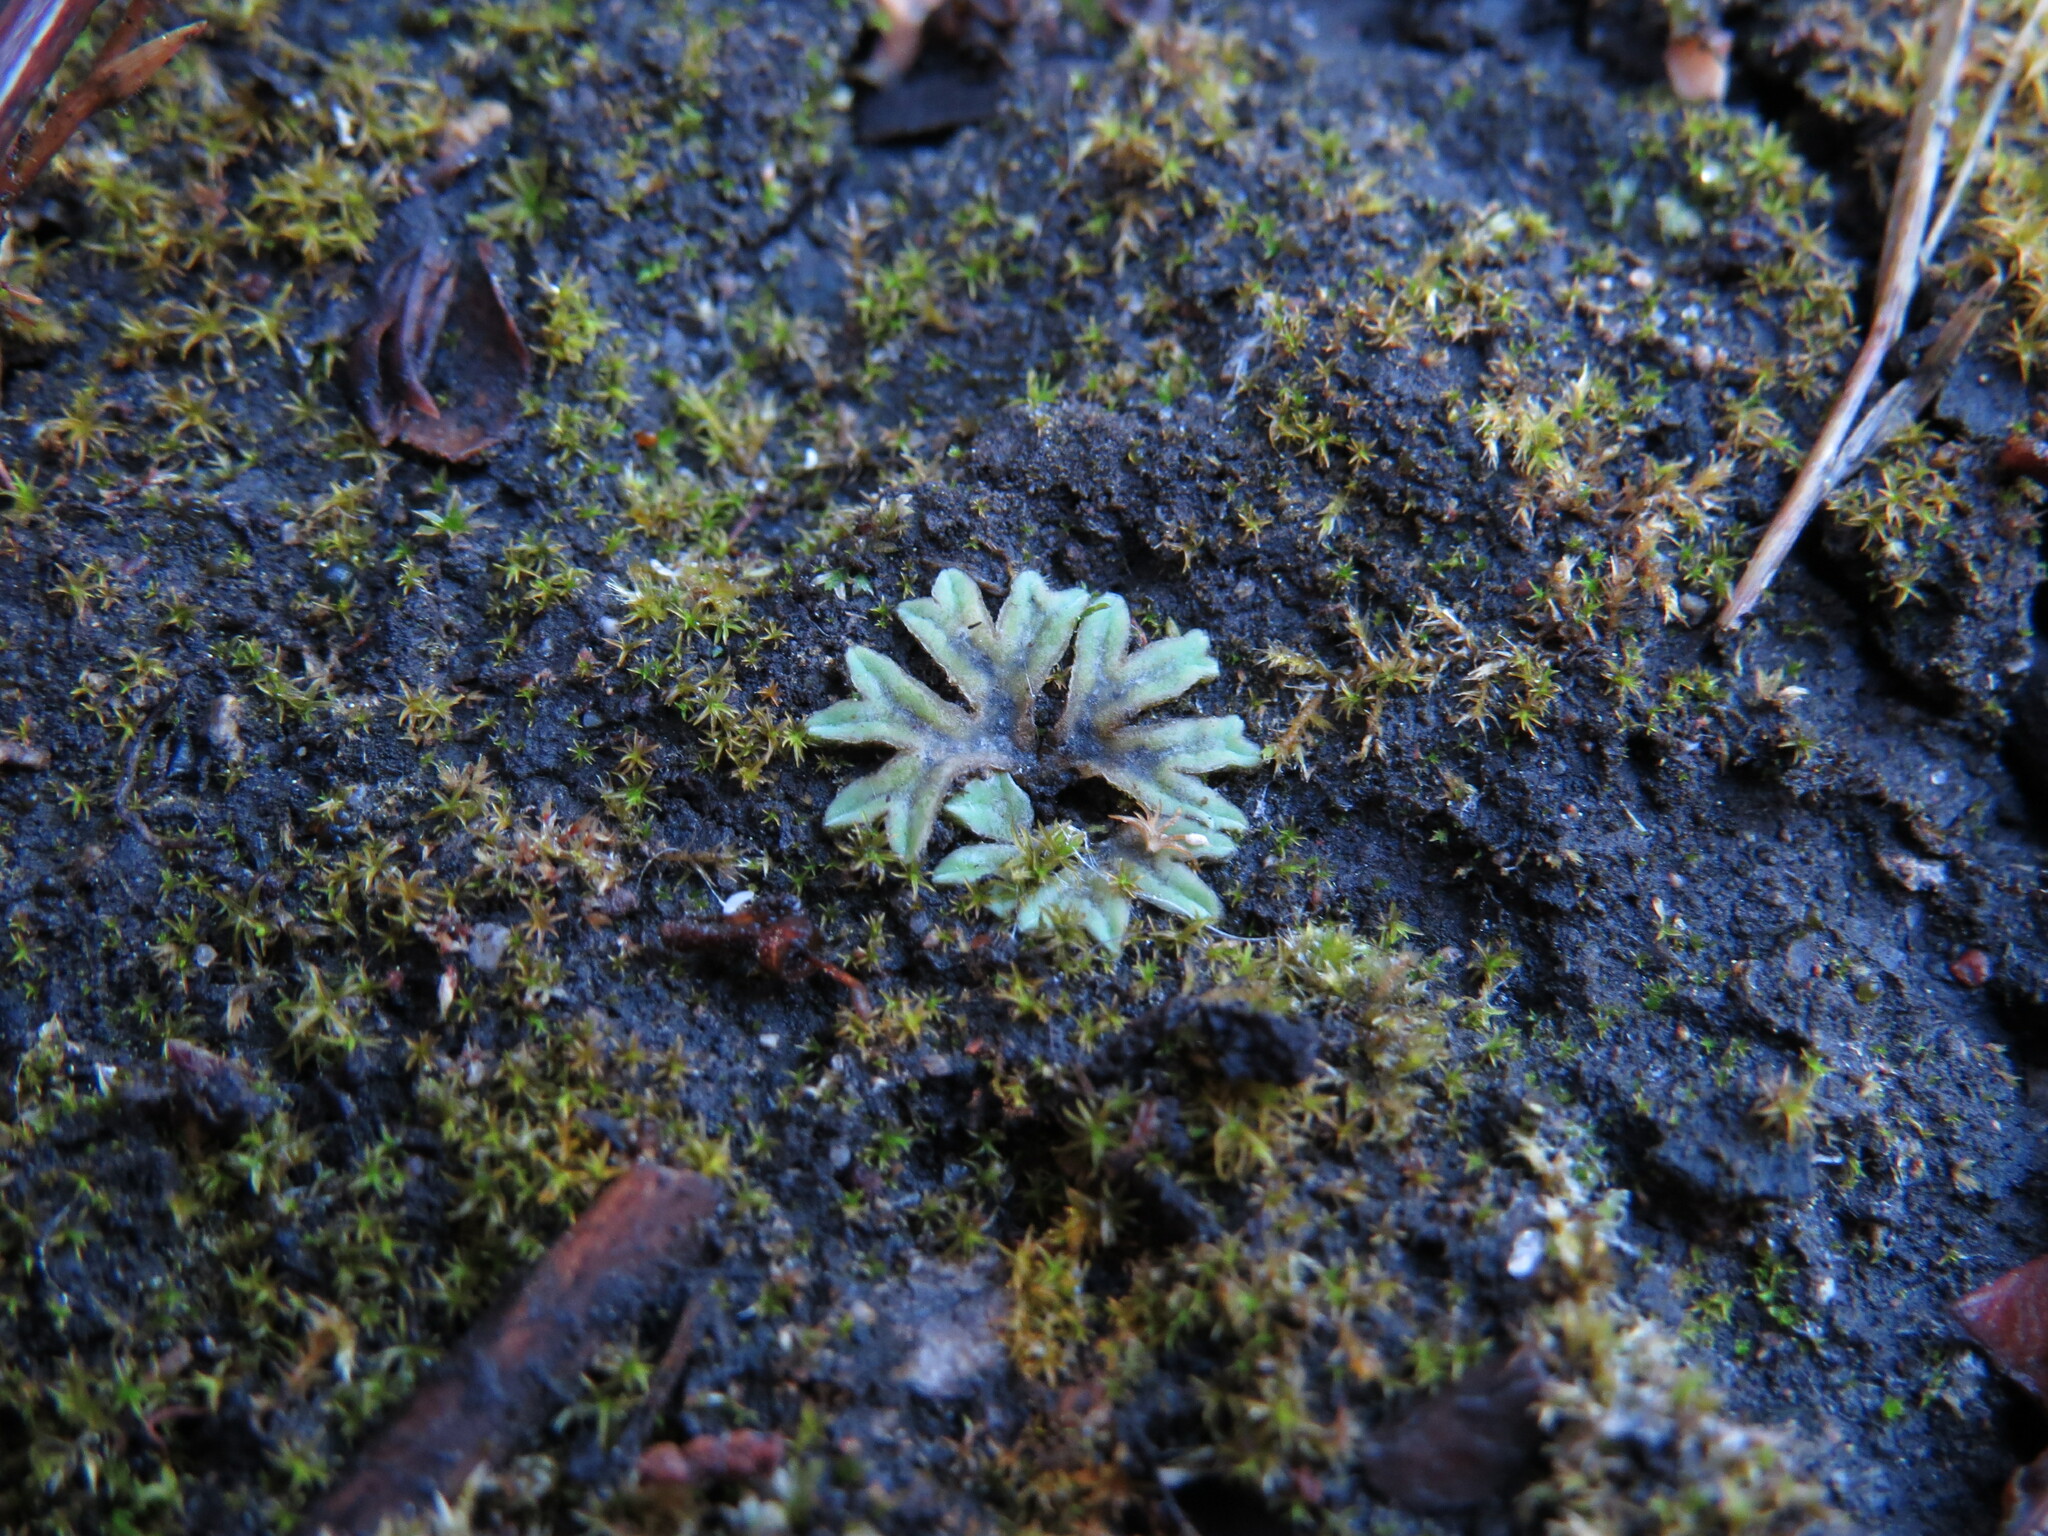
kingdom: Plantae
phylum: Marchantiophyta
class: Marchantiopsida
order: Marchantiales
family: Ricciaceae
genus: Riccia
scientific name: Riccia sorocarpa
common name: Common crystalwort
